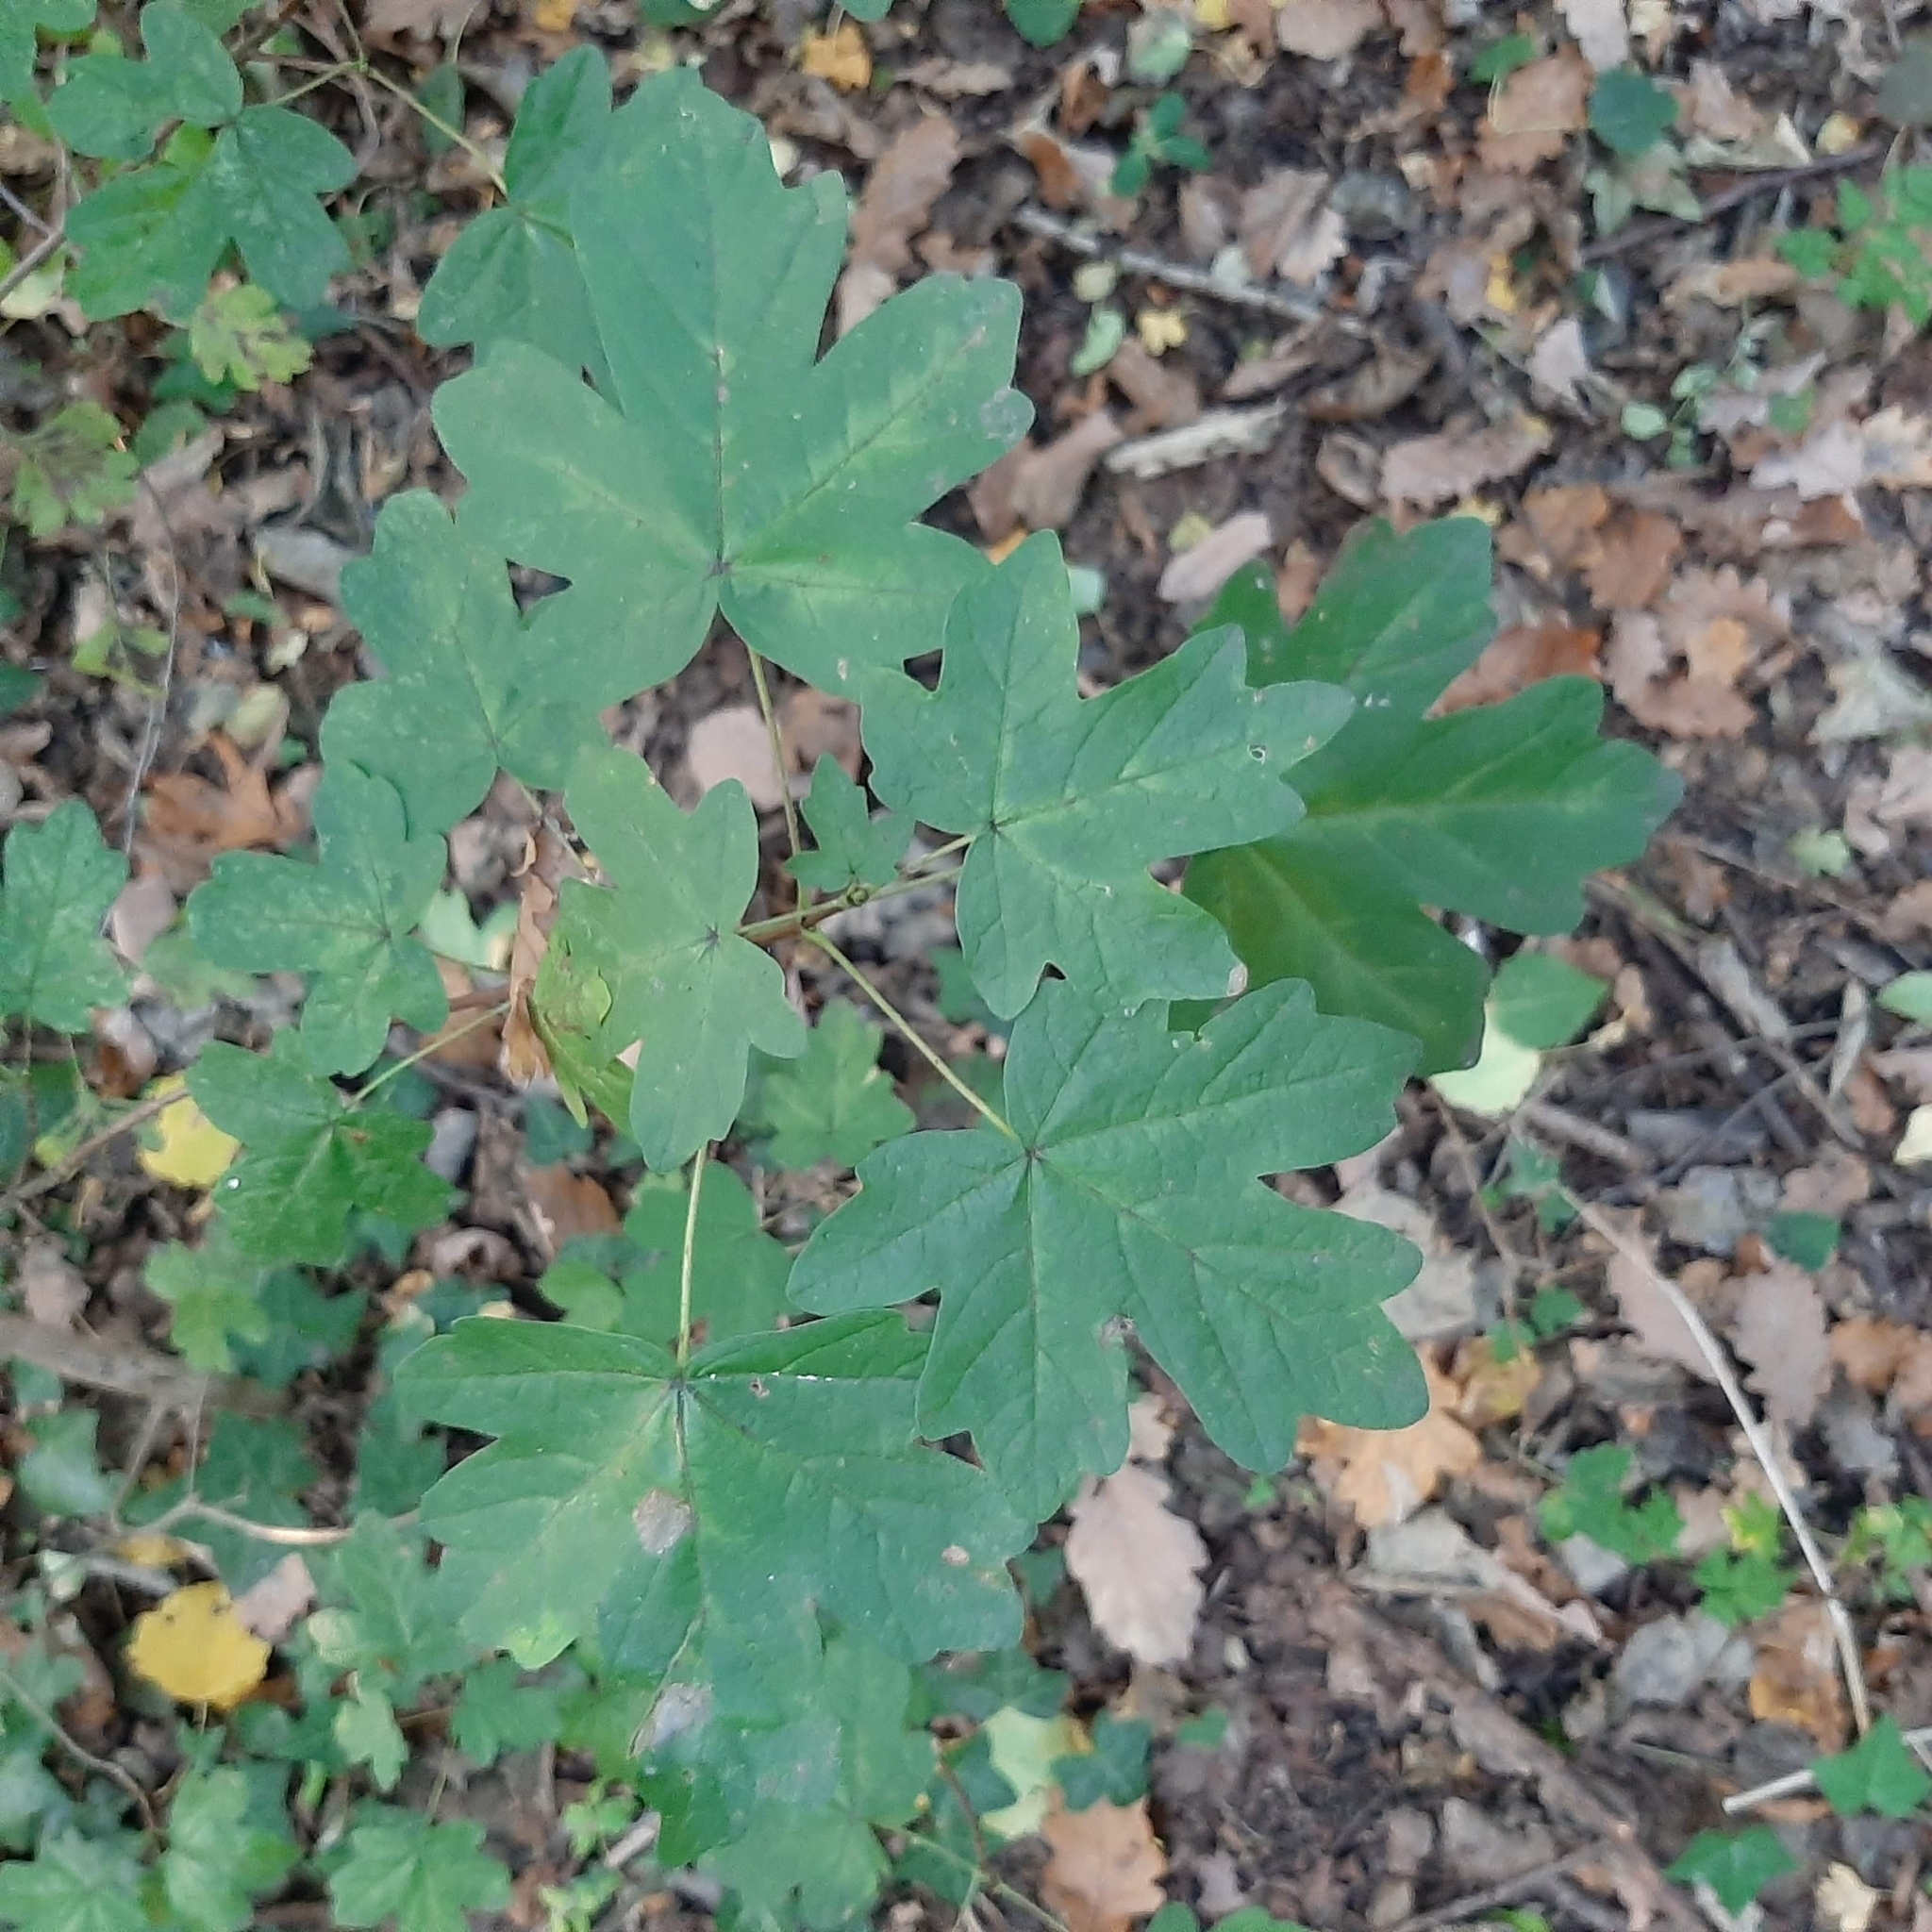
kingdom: Plantae
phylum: Tracheophyta
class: Magnoliopsida
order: Sapindales
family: Sapindaceae
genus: Acer
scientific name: Acer campestre
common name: Field maple
